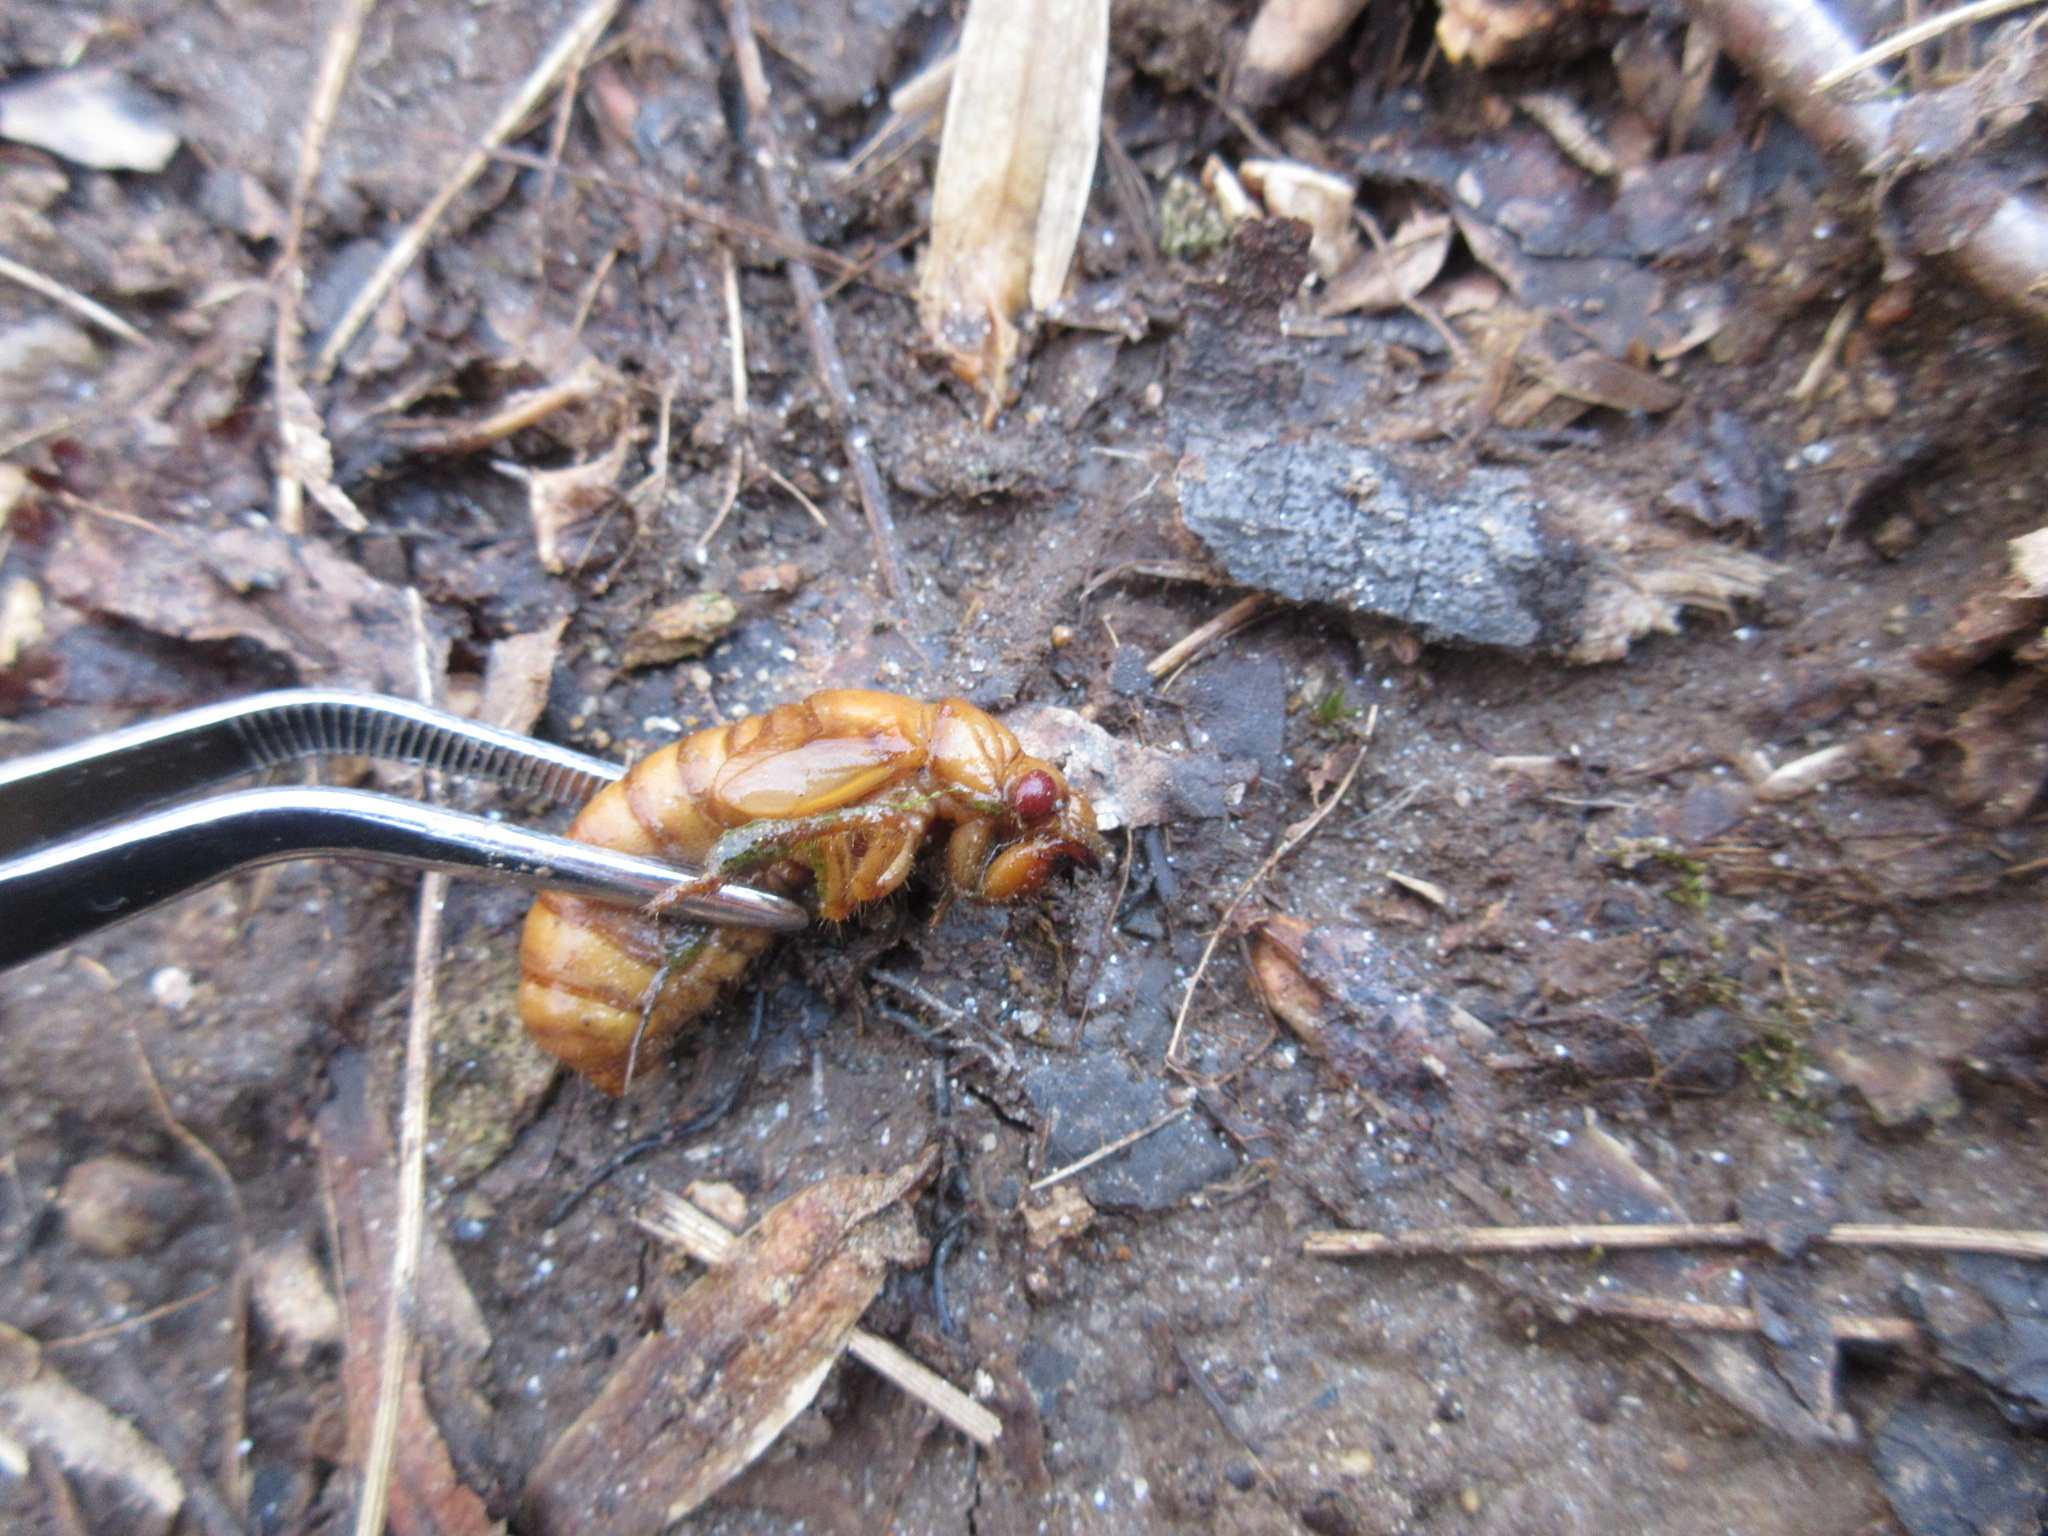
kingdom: Animalia
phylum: Arthropoda
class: Insecta
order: Hemiptera
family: Cicadidae
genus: Magicicada
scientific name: Magicicada
